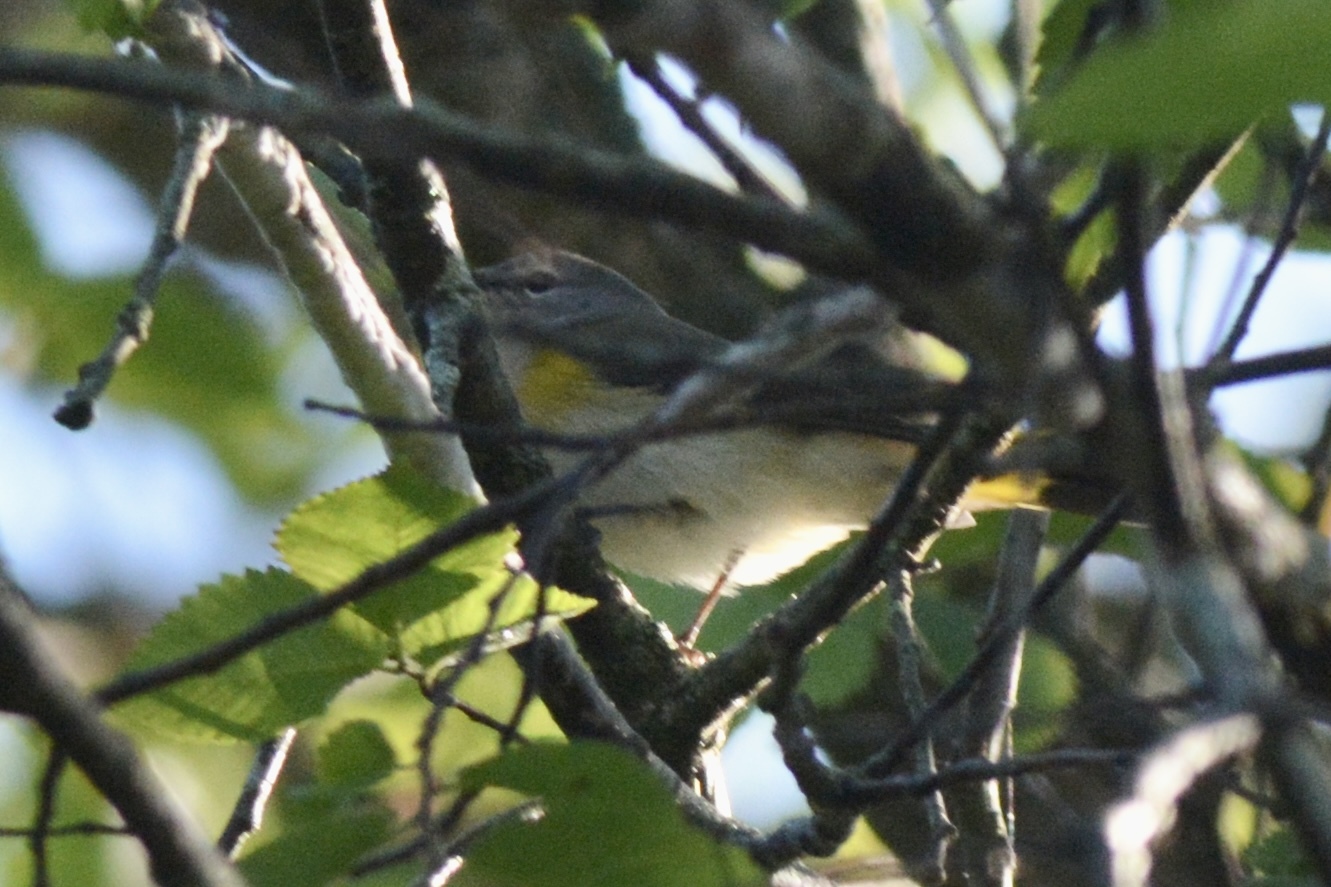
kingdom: Animalia
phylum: Chordata
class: Aves
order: Passeriformes
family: Parulidae
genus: Setophaga
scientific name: Setophaga ruticilla
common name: American redstart
